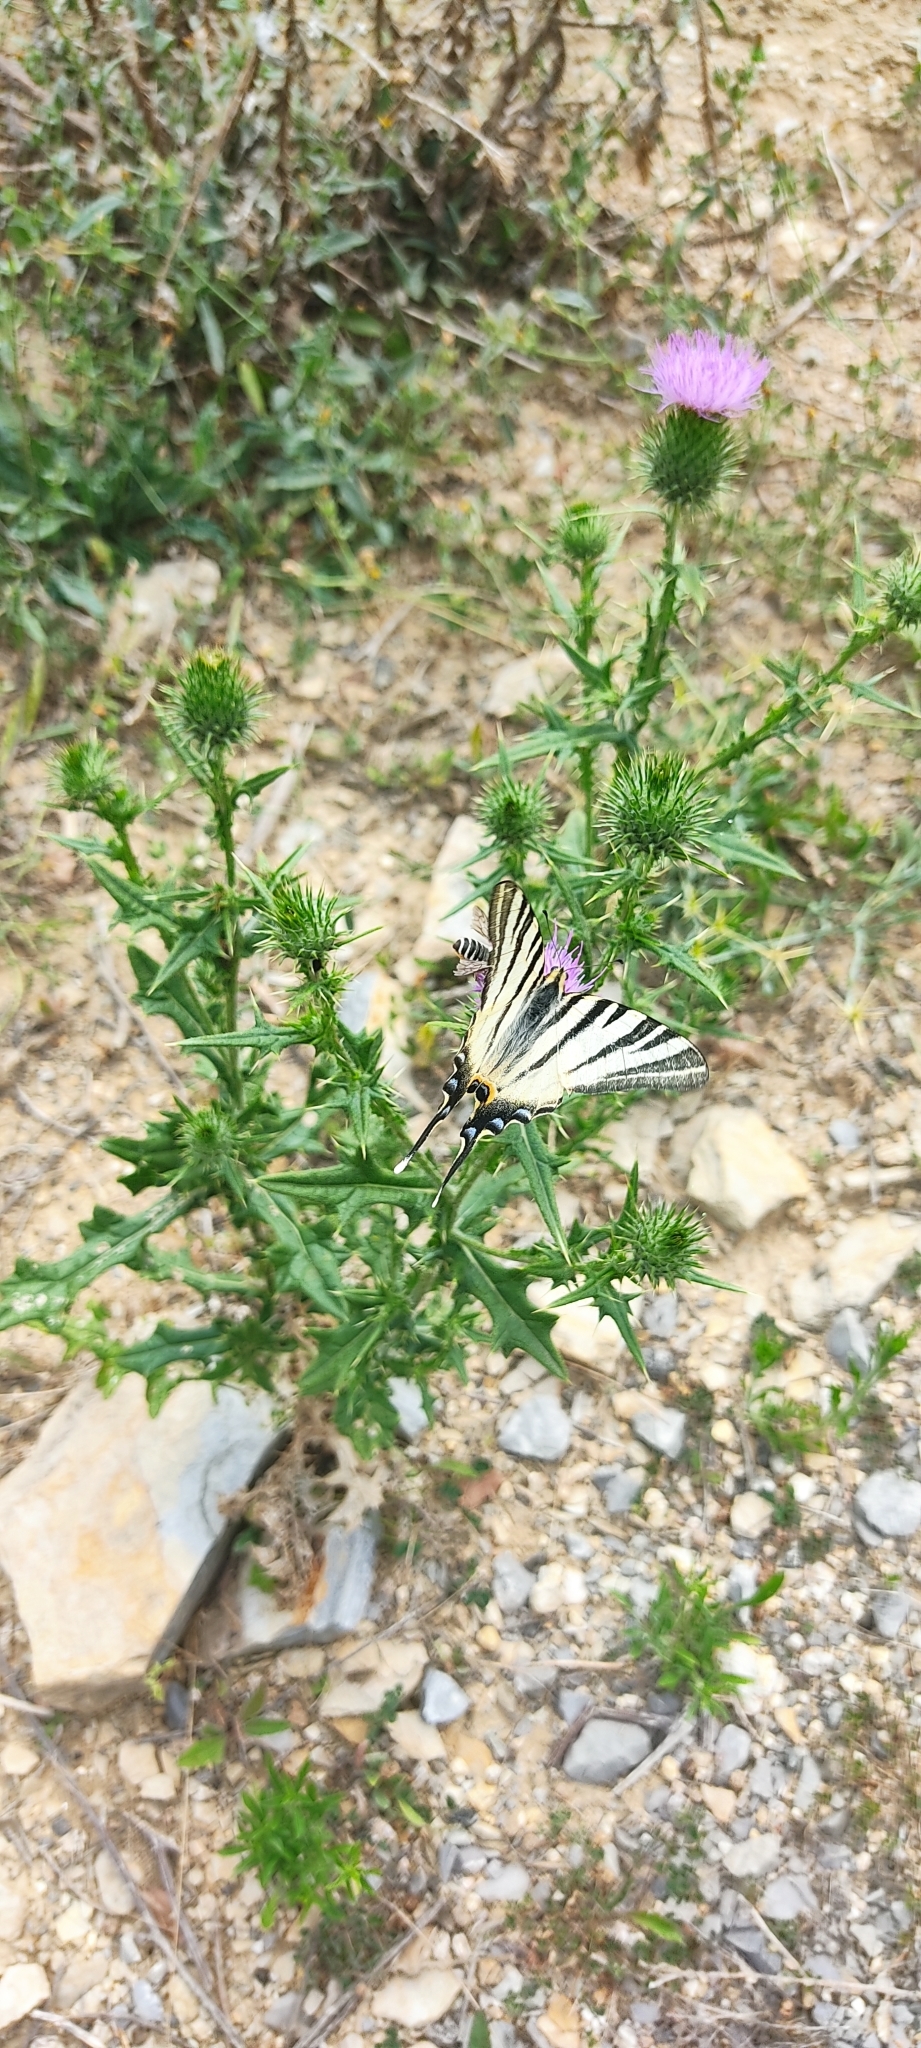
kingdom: Animalia
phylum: Arthropoda
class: Insecta
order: Lepidoptera
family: Papilionidae
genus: Iphiclides
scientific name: Iphiclides podalirius
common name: Scarce swallowtail
